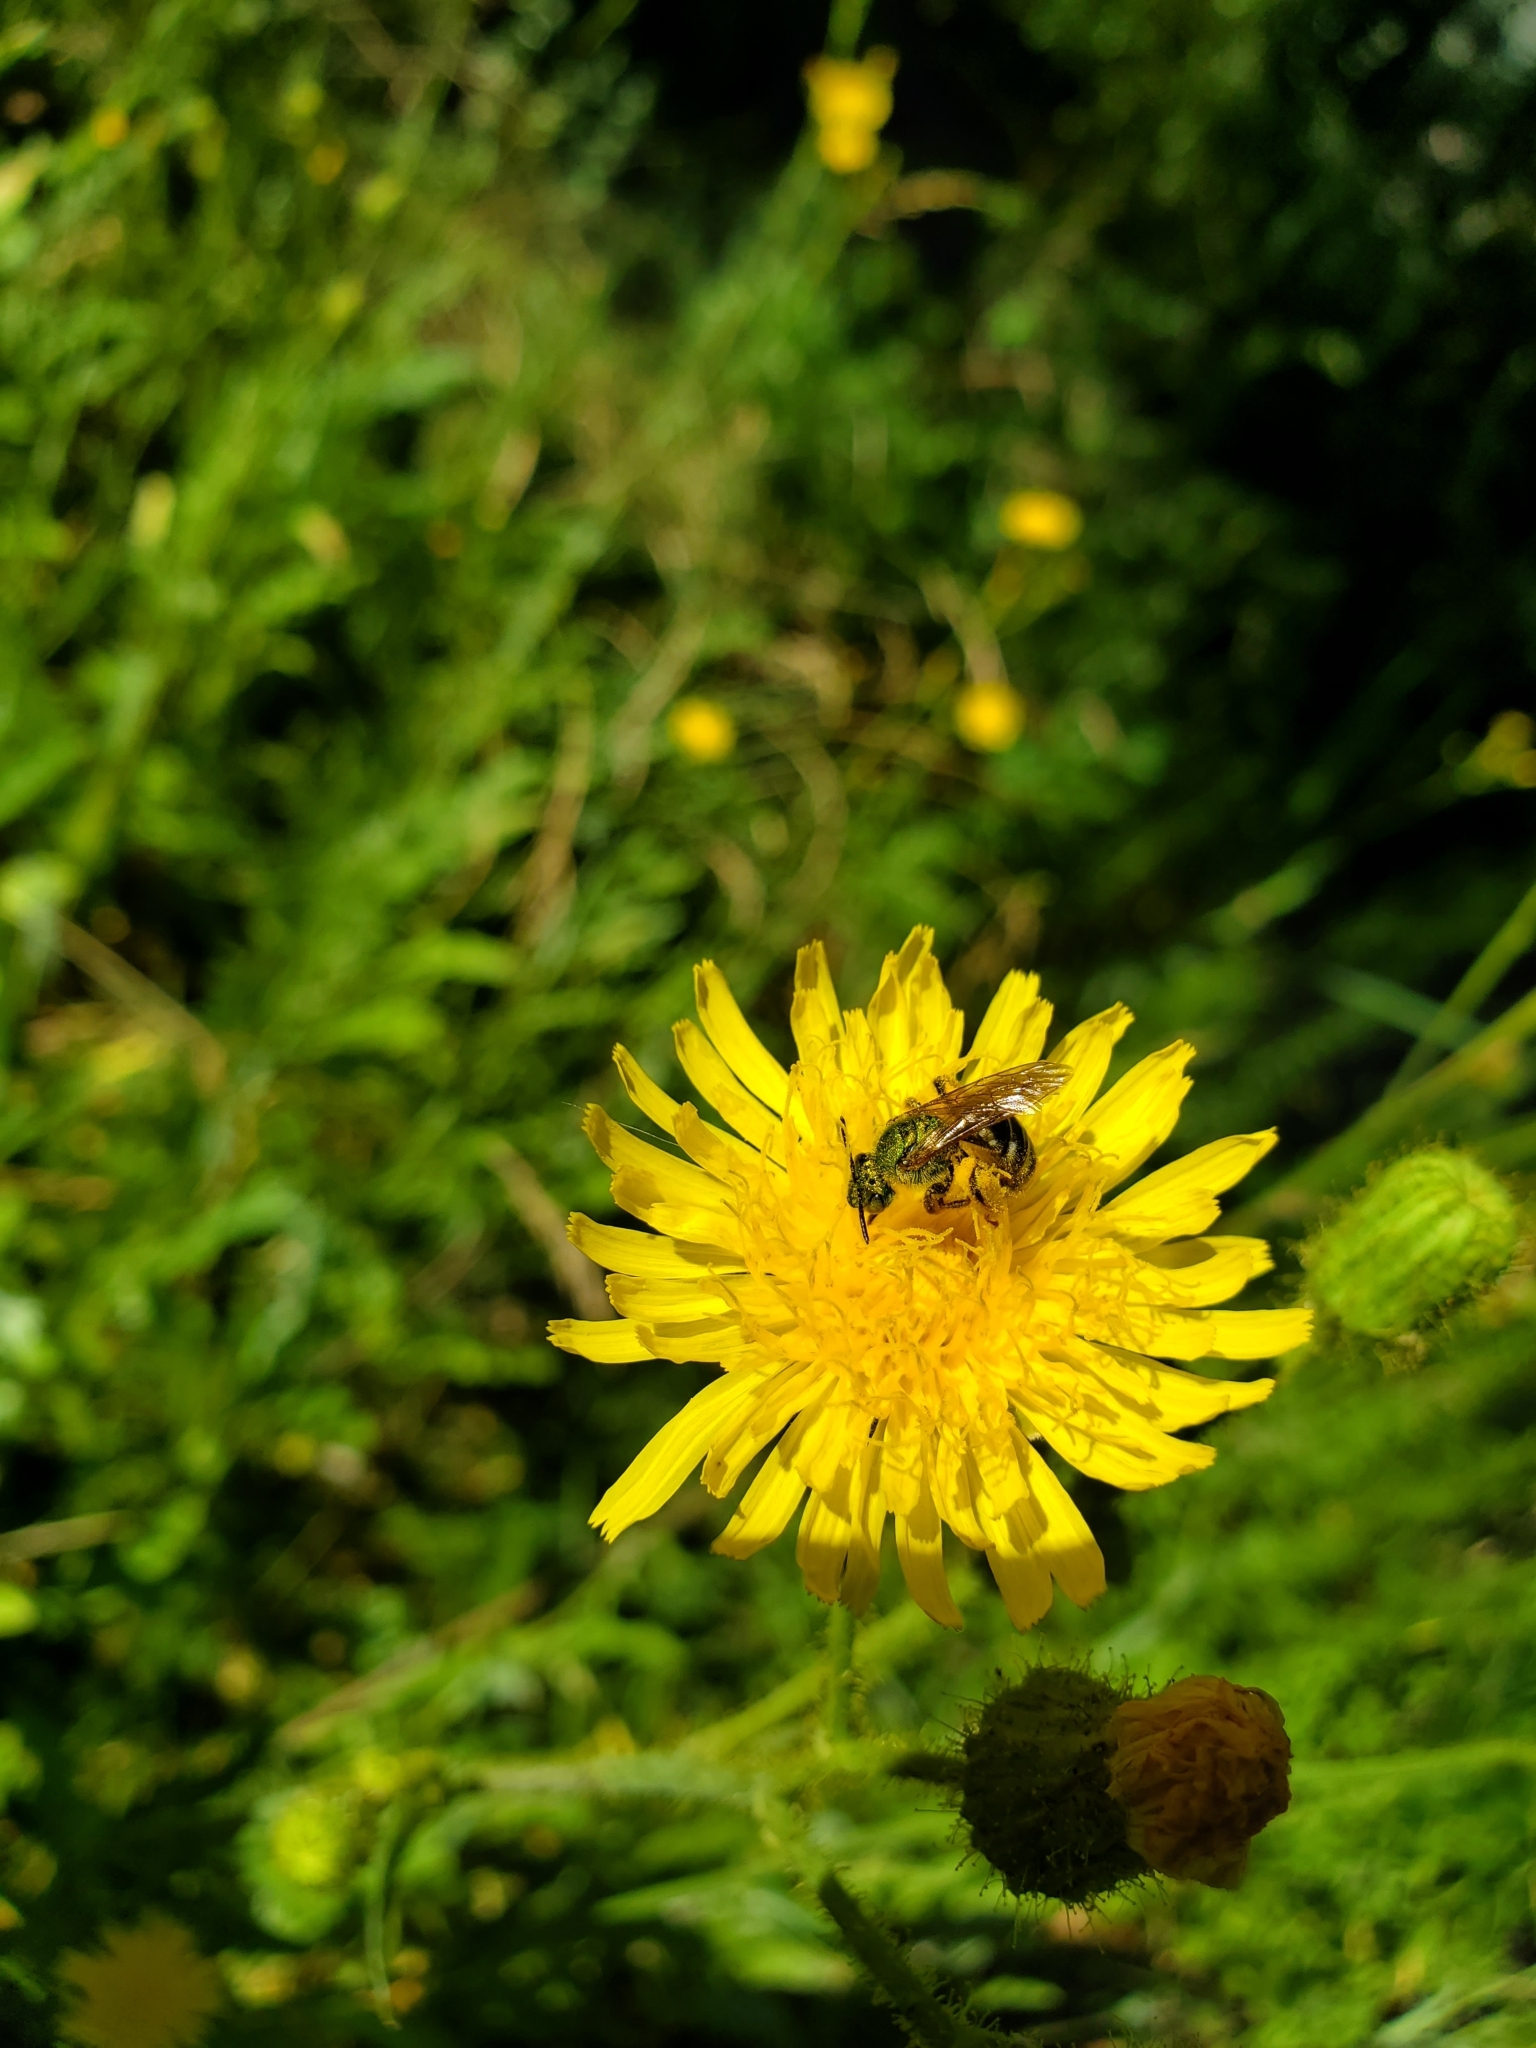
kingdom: Animalia
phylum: Arthropoda
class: Insecta
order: Hymenoptera
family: Halictidae
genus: Agapostemon
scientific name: Agapostemon virescens
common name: Bicolored striped sweat bee
